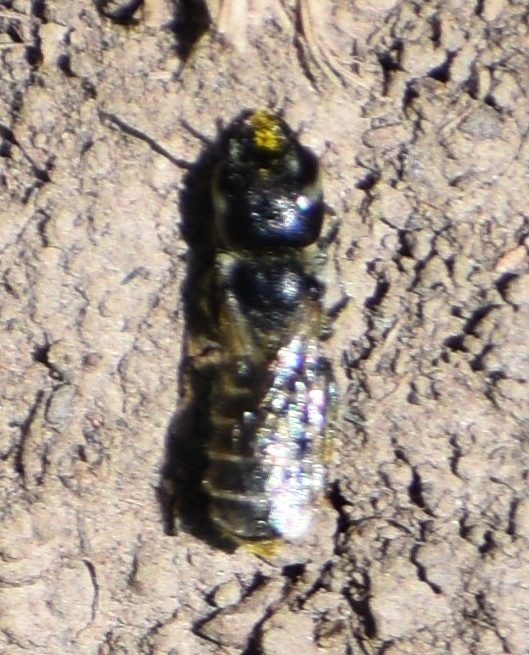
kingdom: Animalia
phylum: Arthropoda
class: Insecta
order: Hymenoptera
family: Megachilidae
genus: Ashmeadiella
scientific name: Ashmeadiella
